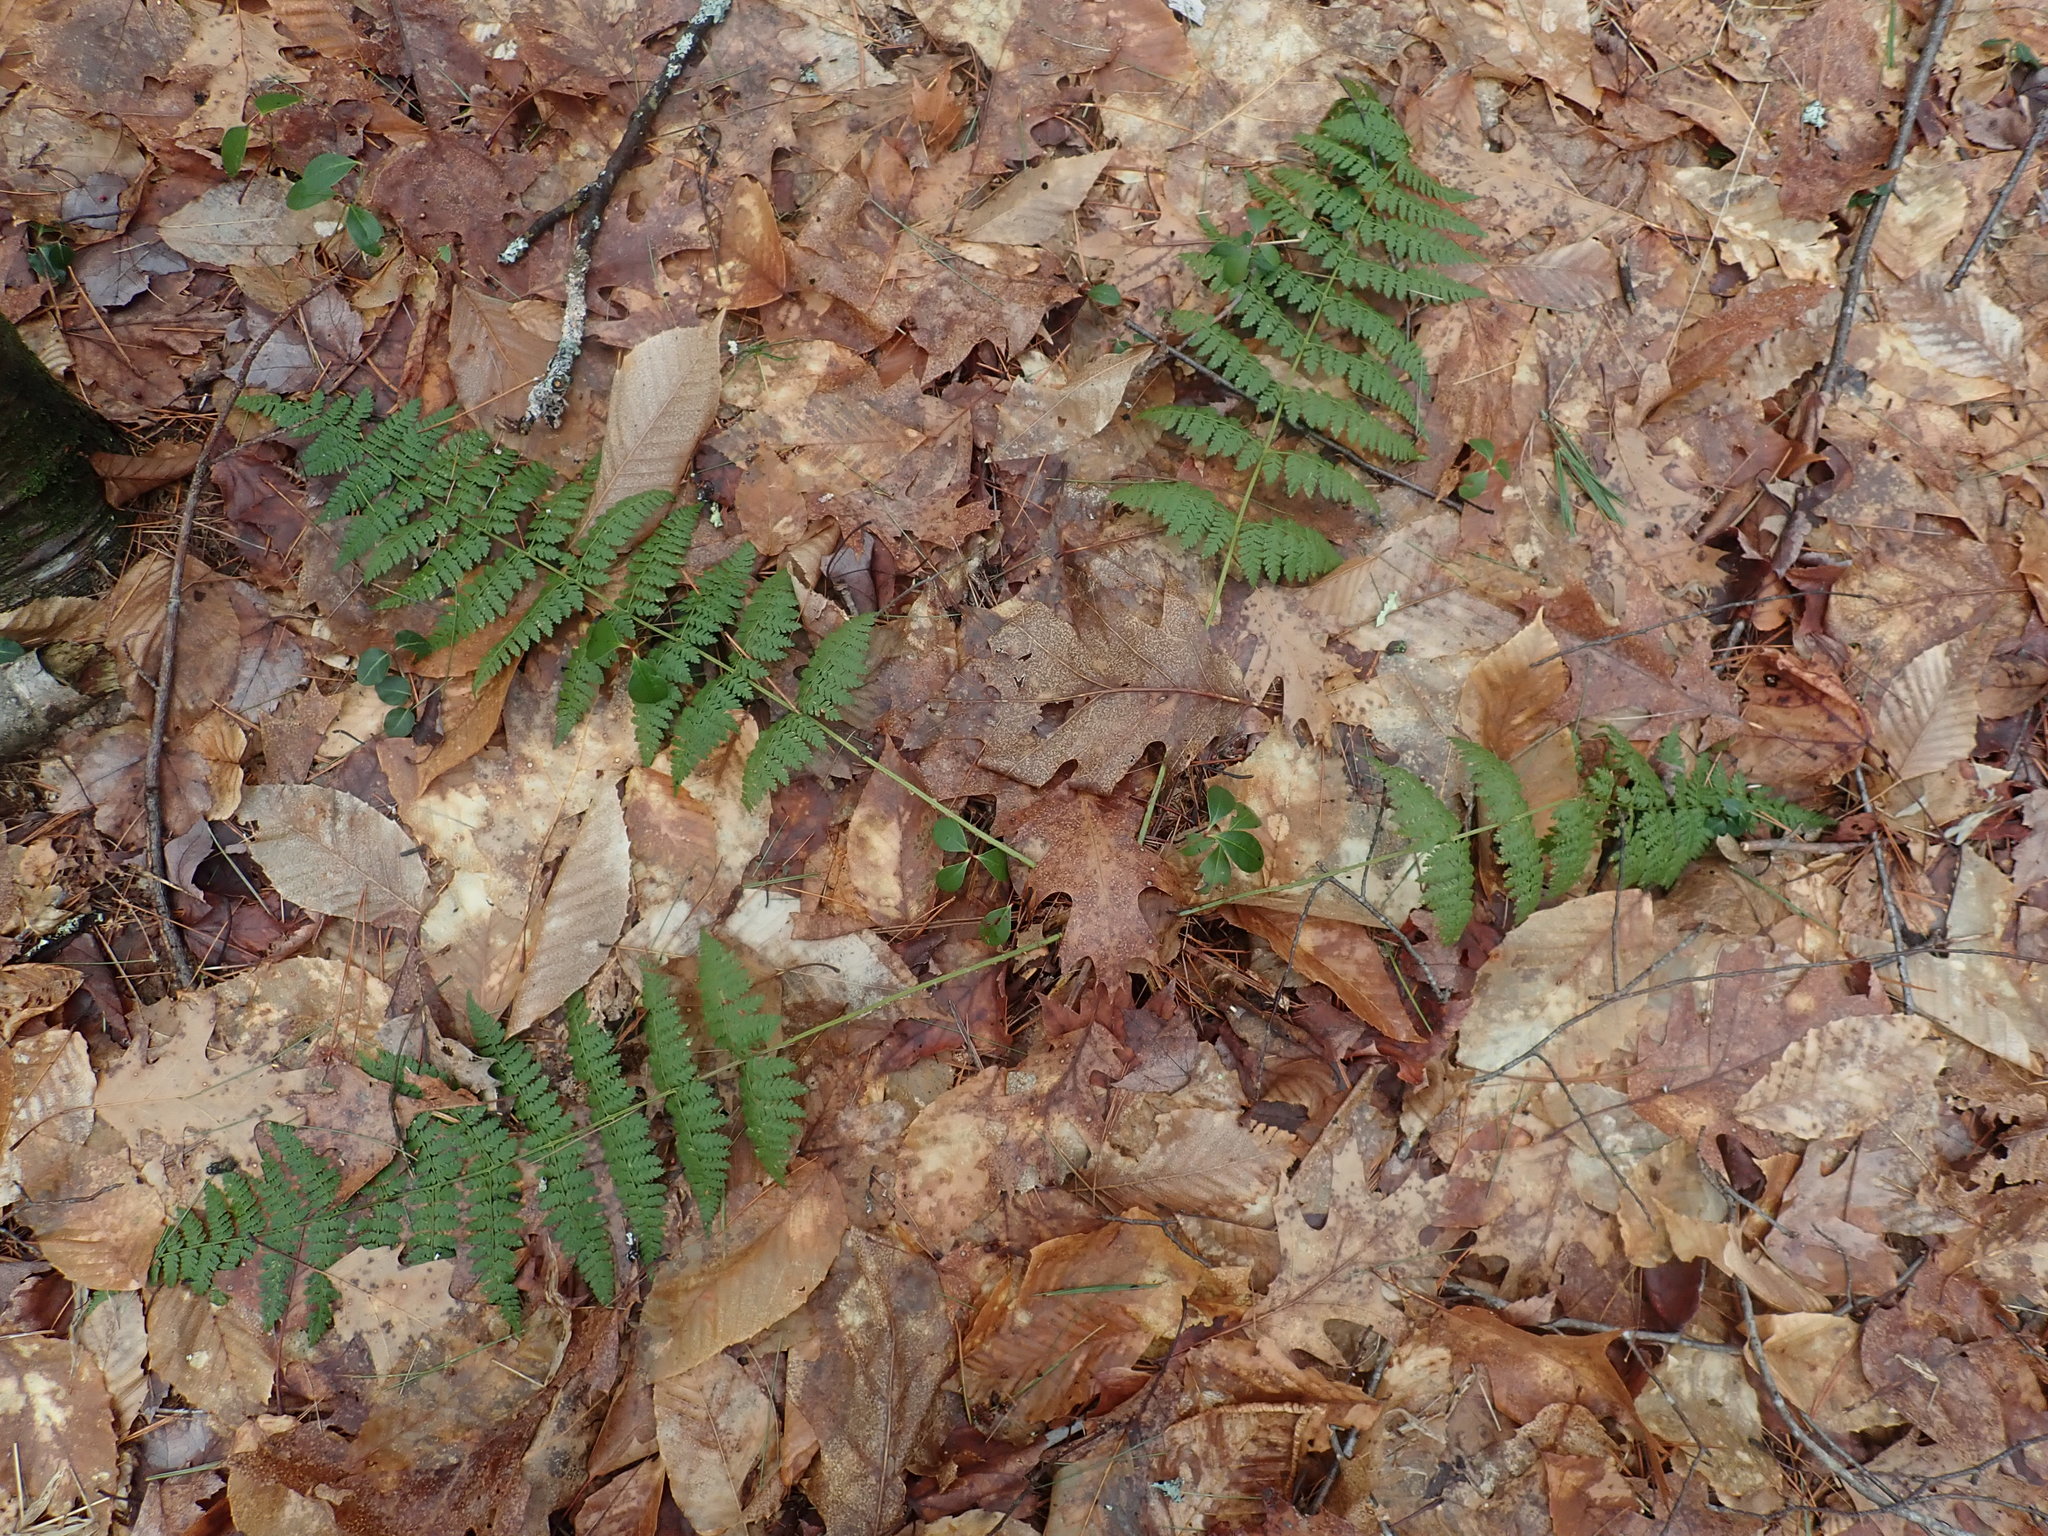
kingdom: Plantae
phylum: Tracheophyta
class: Polypodiopsida
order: Polypodiales
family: Dryopteridaceae
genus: Dryopteris
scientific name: Dryopteris intermedia
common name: Evergreen wood fern
